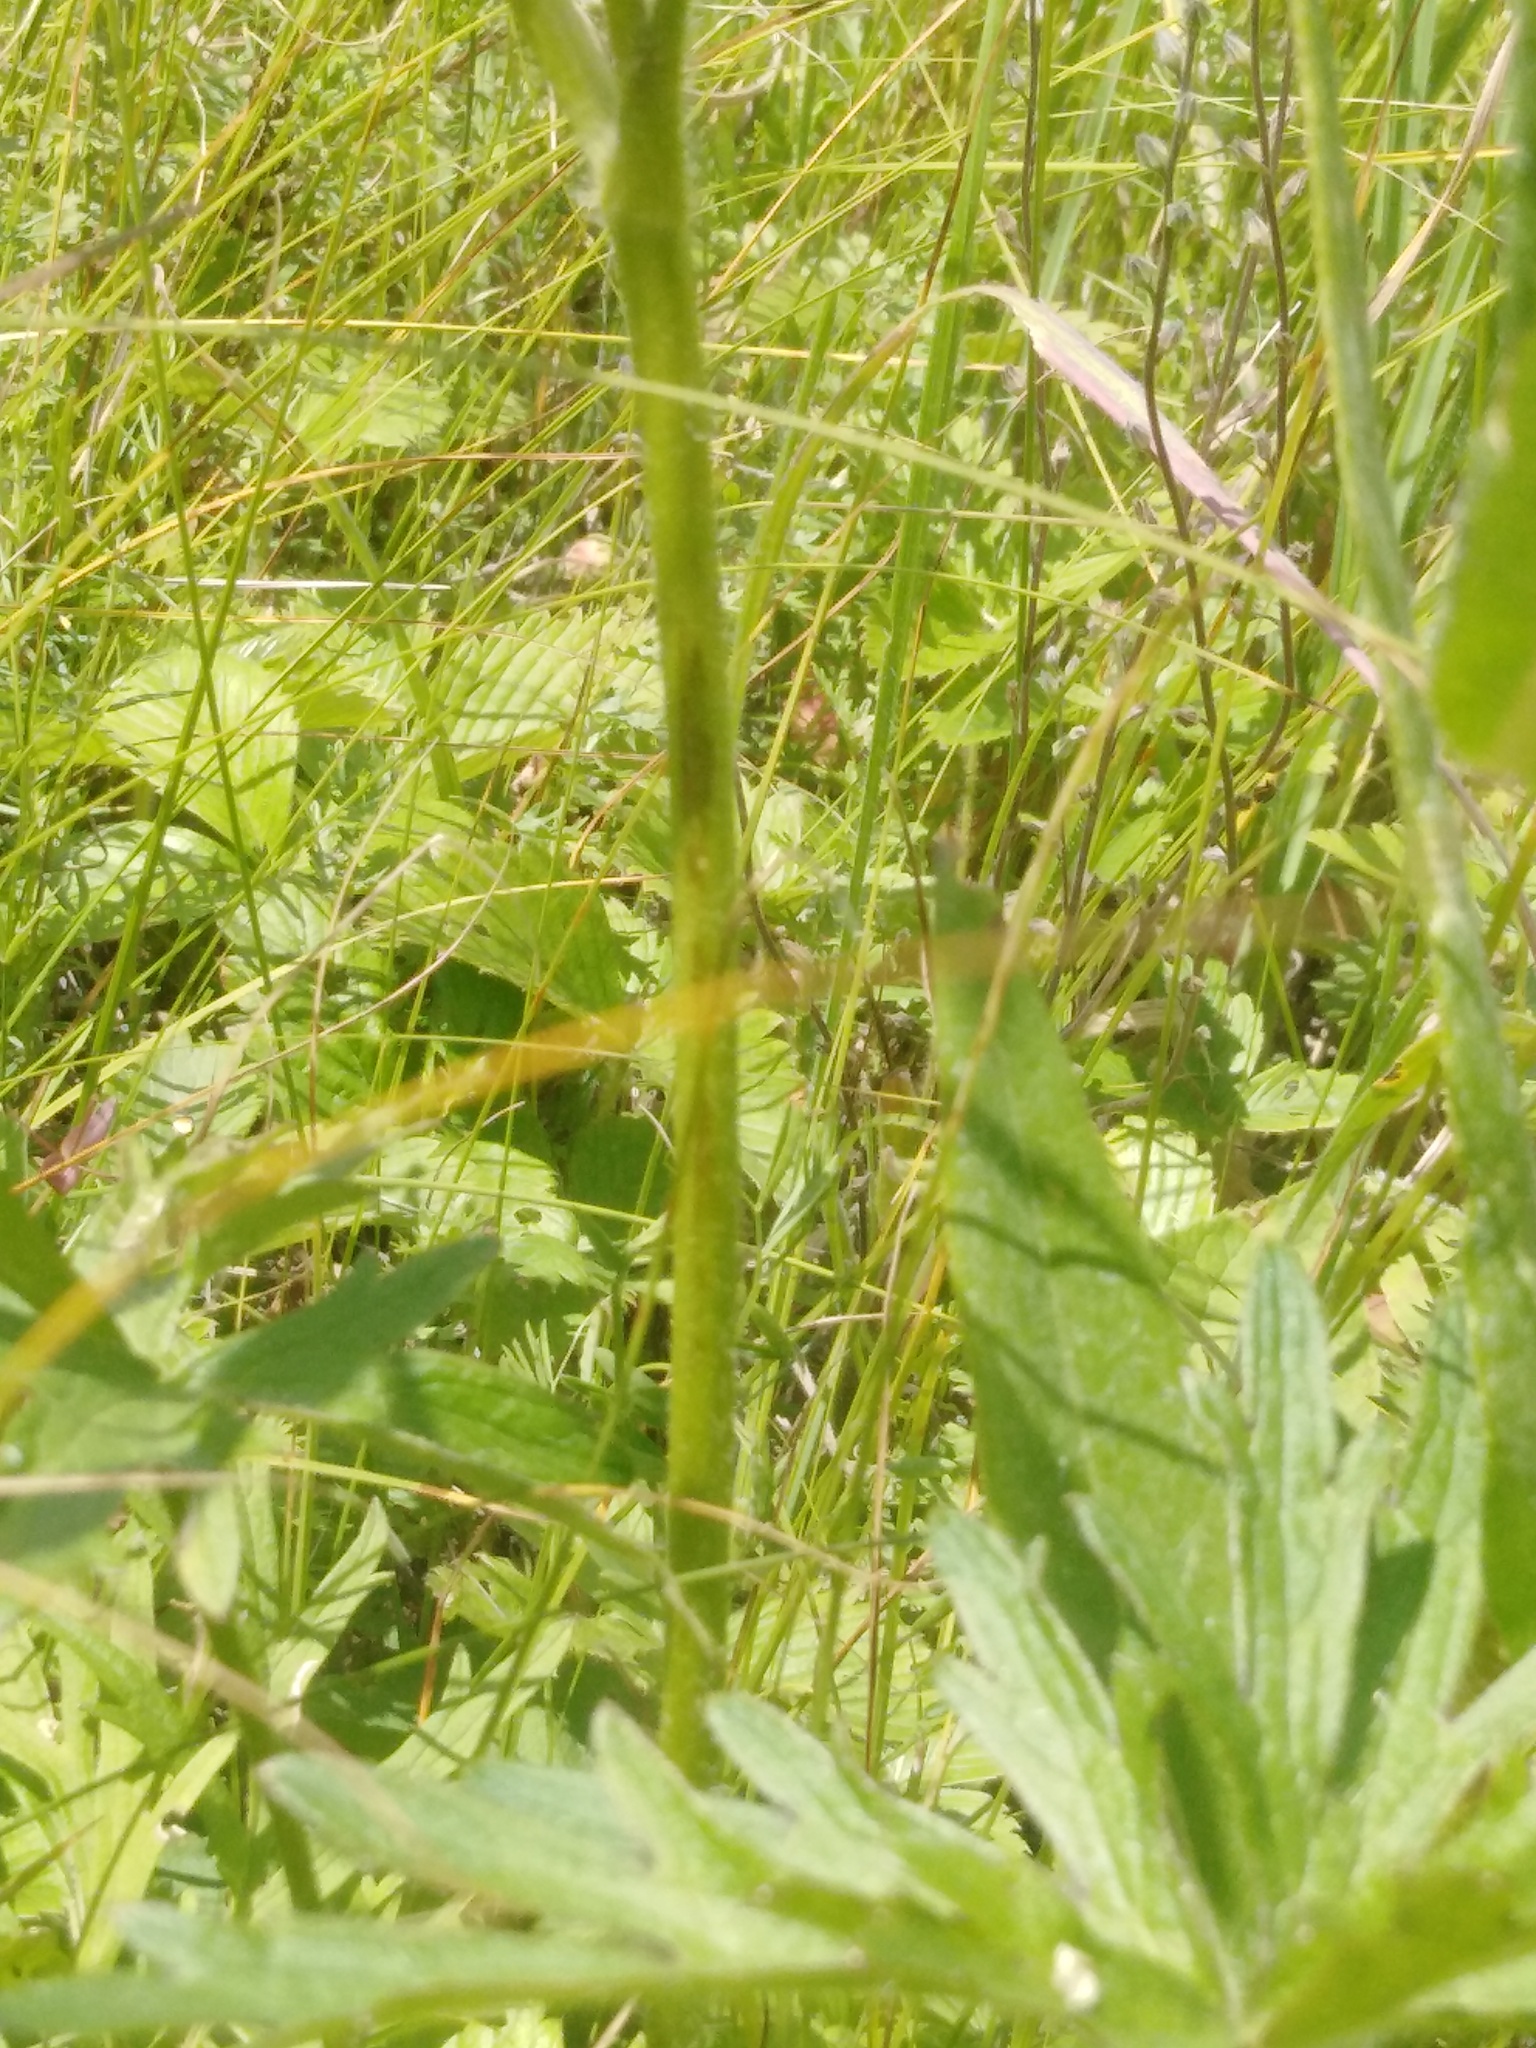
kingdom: Plantae
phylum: Tracheophyta
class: Magnoliopsida
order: Ranunculales
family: Ranunculaceae
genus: Ranunculus
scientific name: Ranunculus polyanthemos
